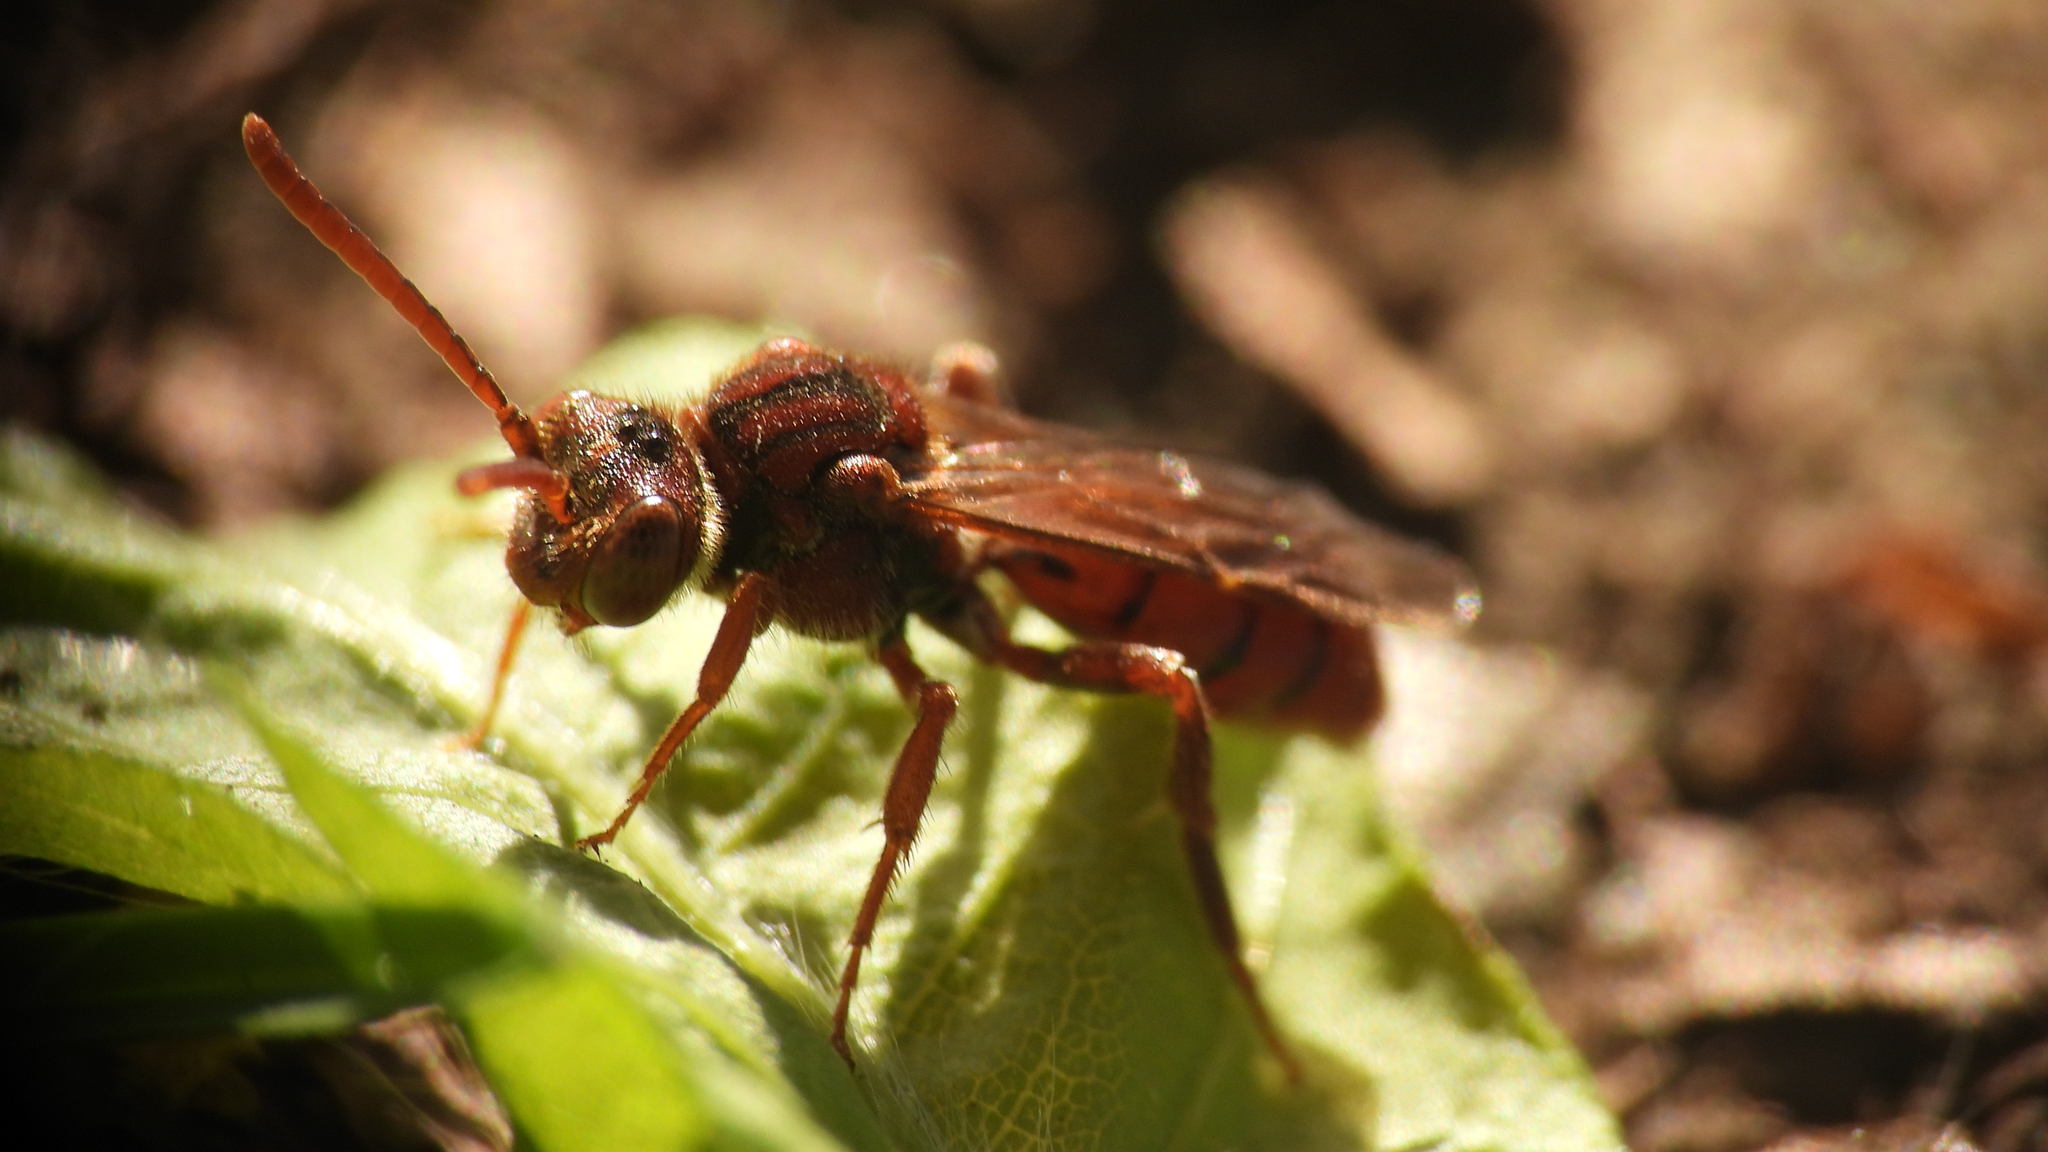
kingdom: Animalia
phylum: Arthropoda
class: Insecta
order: Hymenoptera
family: Apidae
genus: Nomada
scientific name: Nomada
